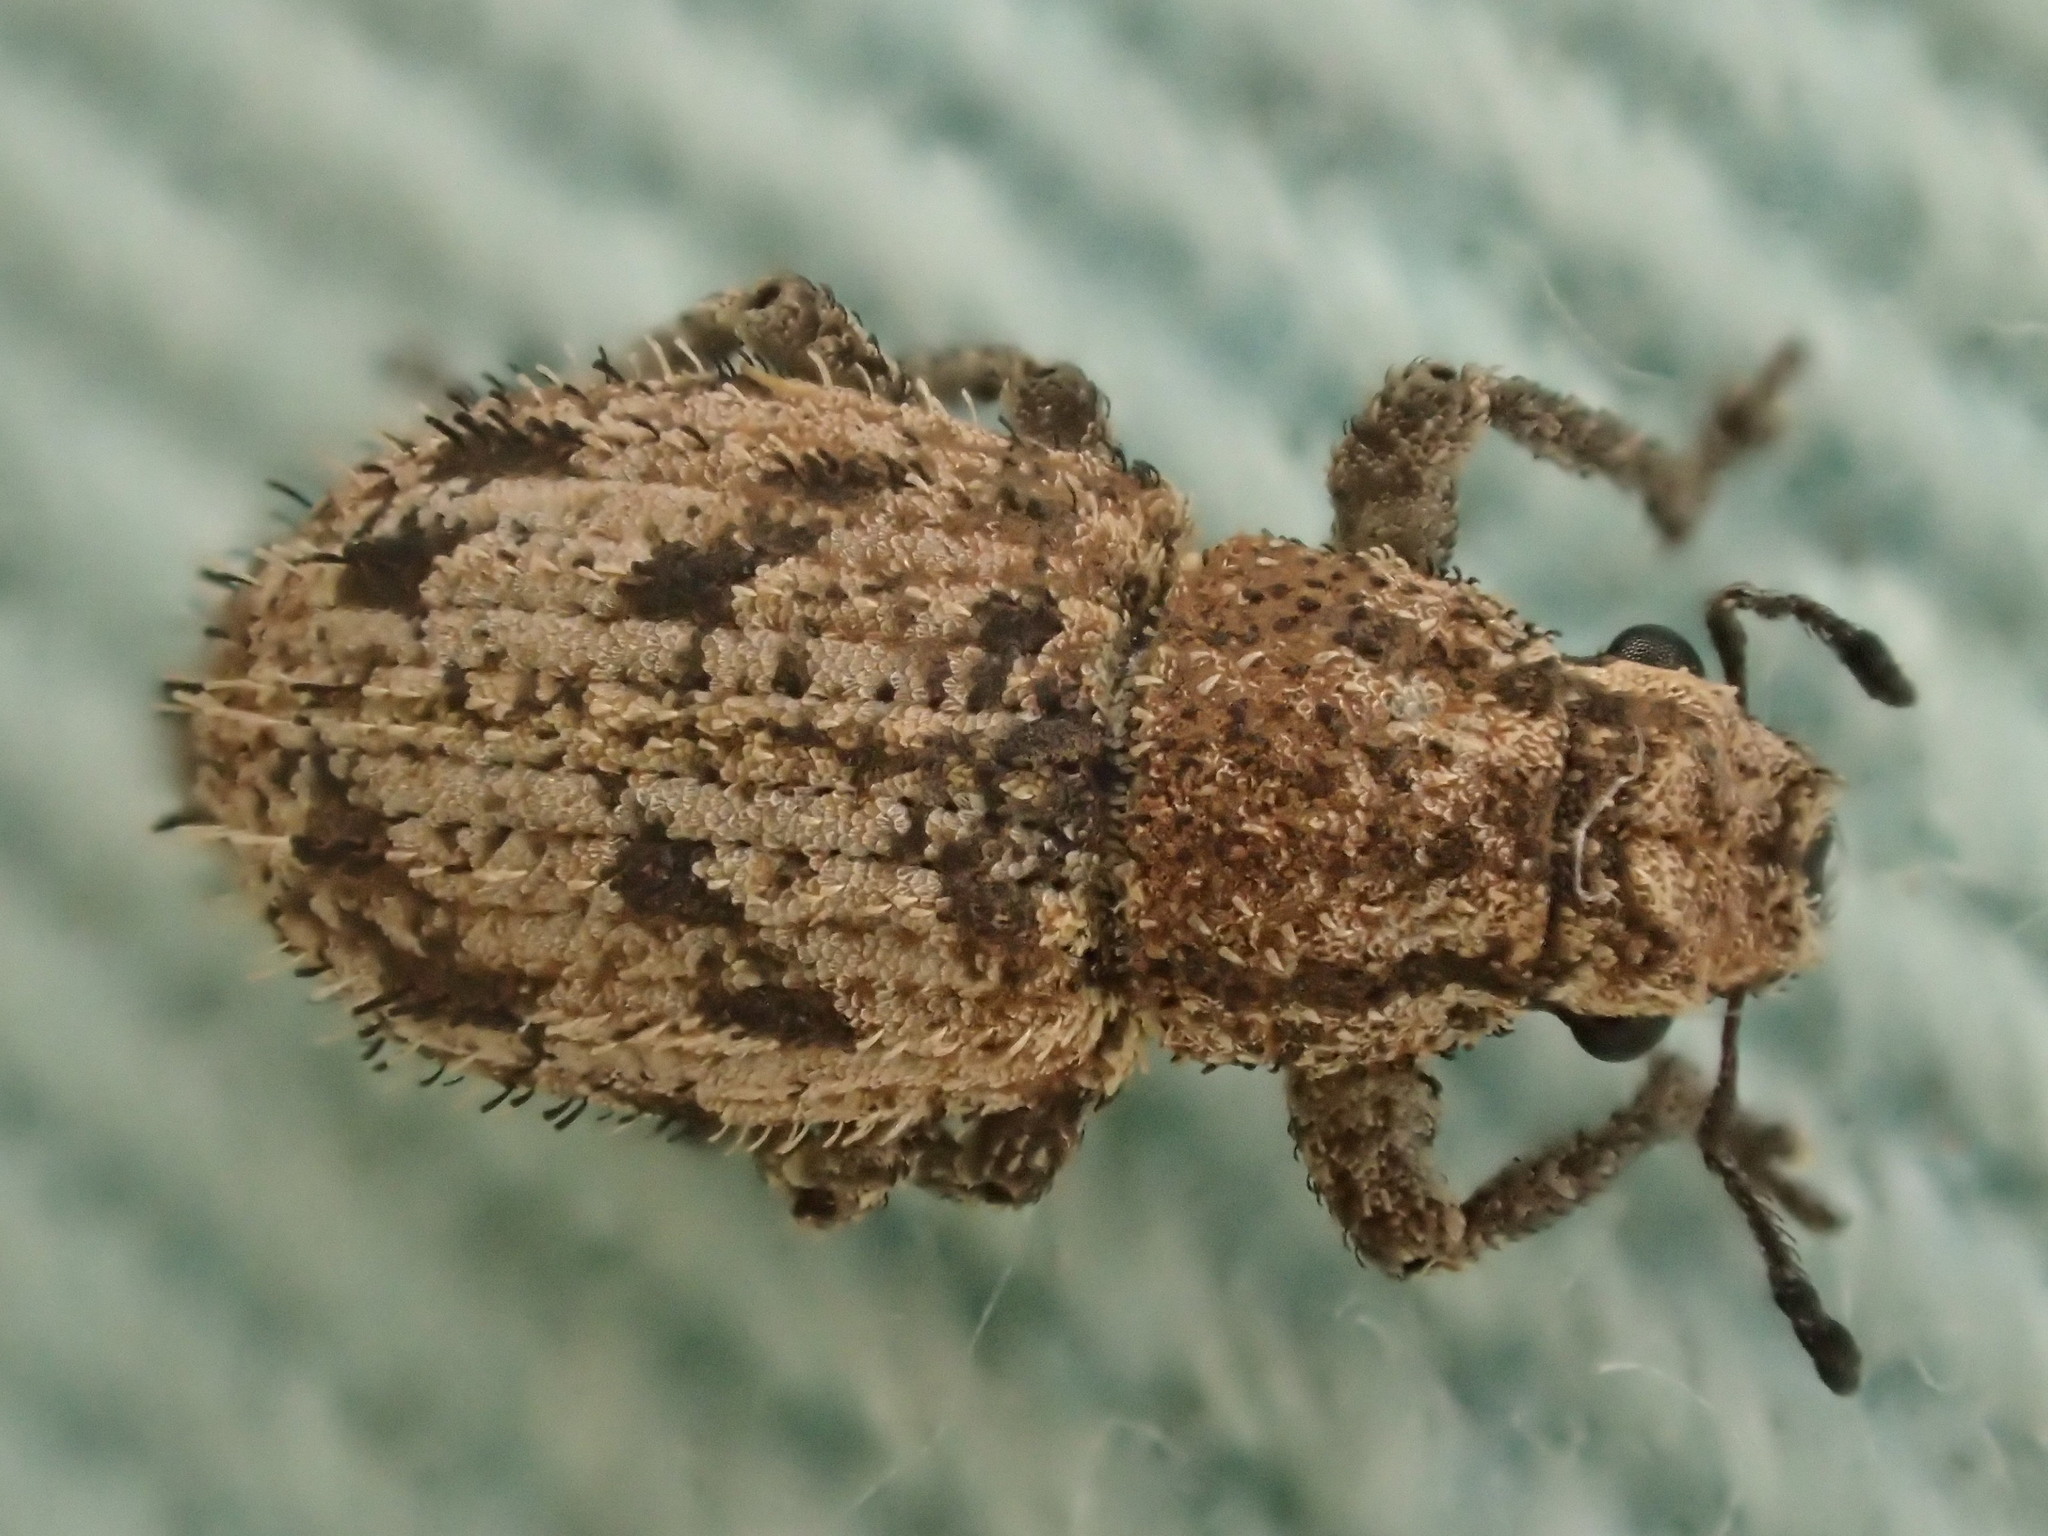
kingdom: Animalia
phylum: Arthropoda
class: Insecta
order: Coleoptera
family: Curculionidae
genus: Floresianus
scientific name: Floresianus sordidus
